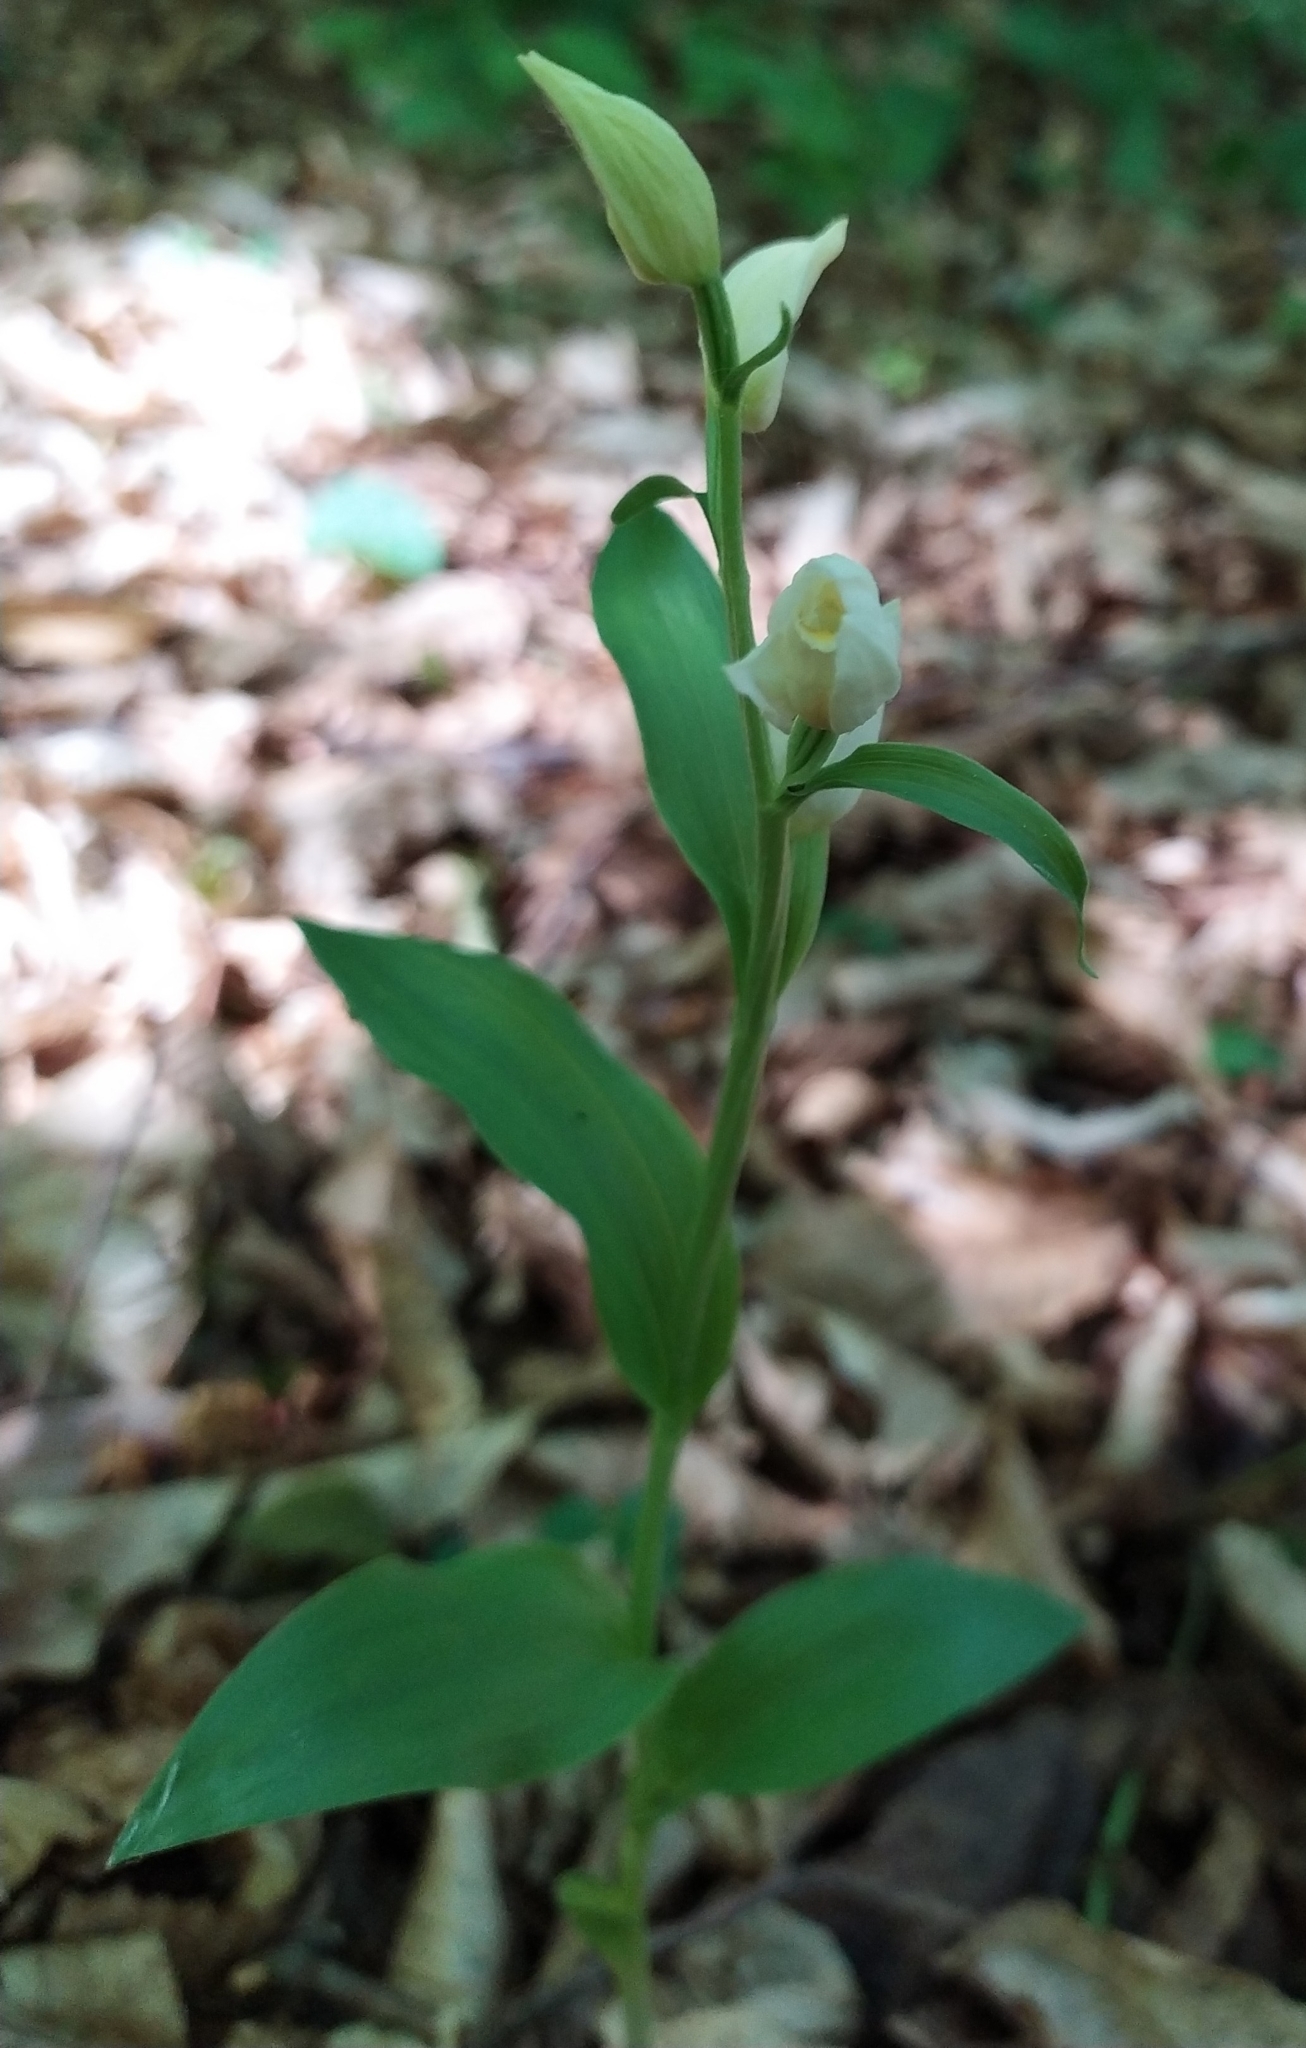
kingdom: Plantae
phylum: Tracheophyta
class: Liliopsida
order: Asparagales
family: Orchidaceae
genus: Cephalanthera
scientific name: Cephalanthera damasonium
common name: White helleborine
